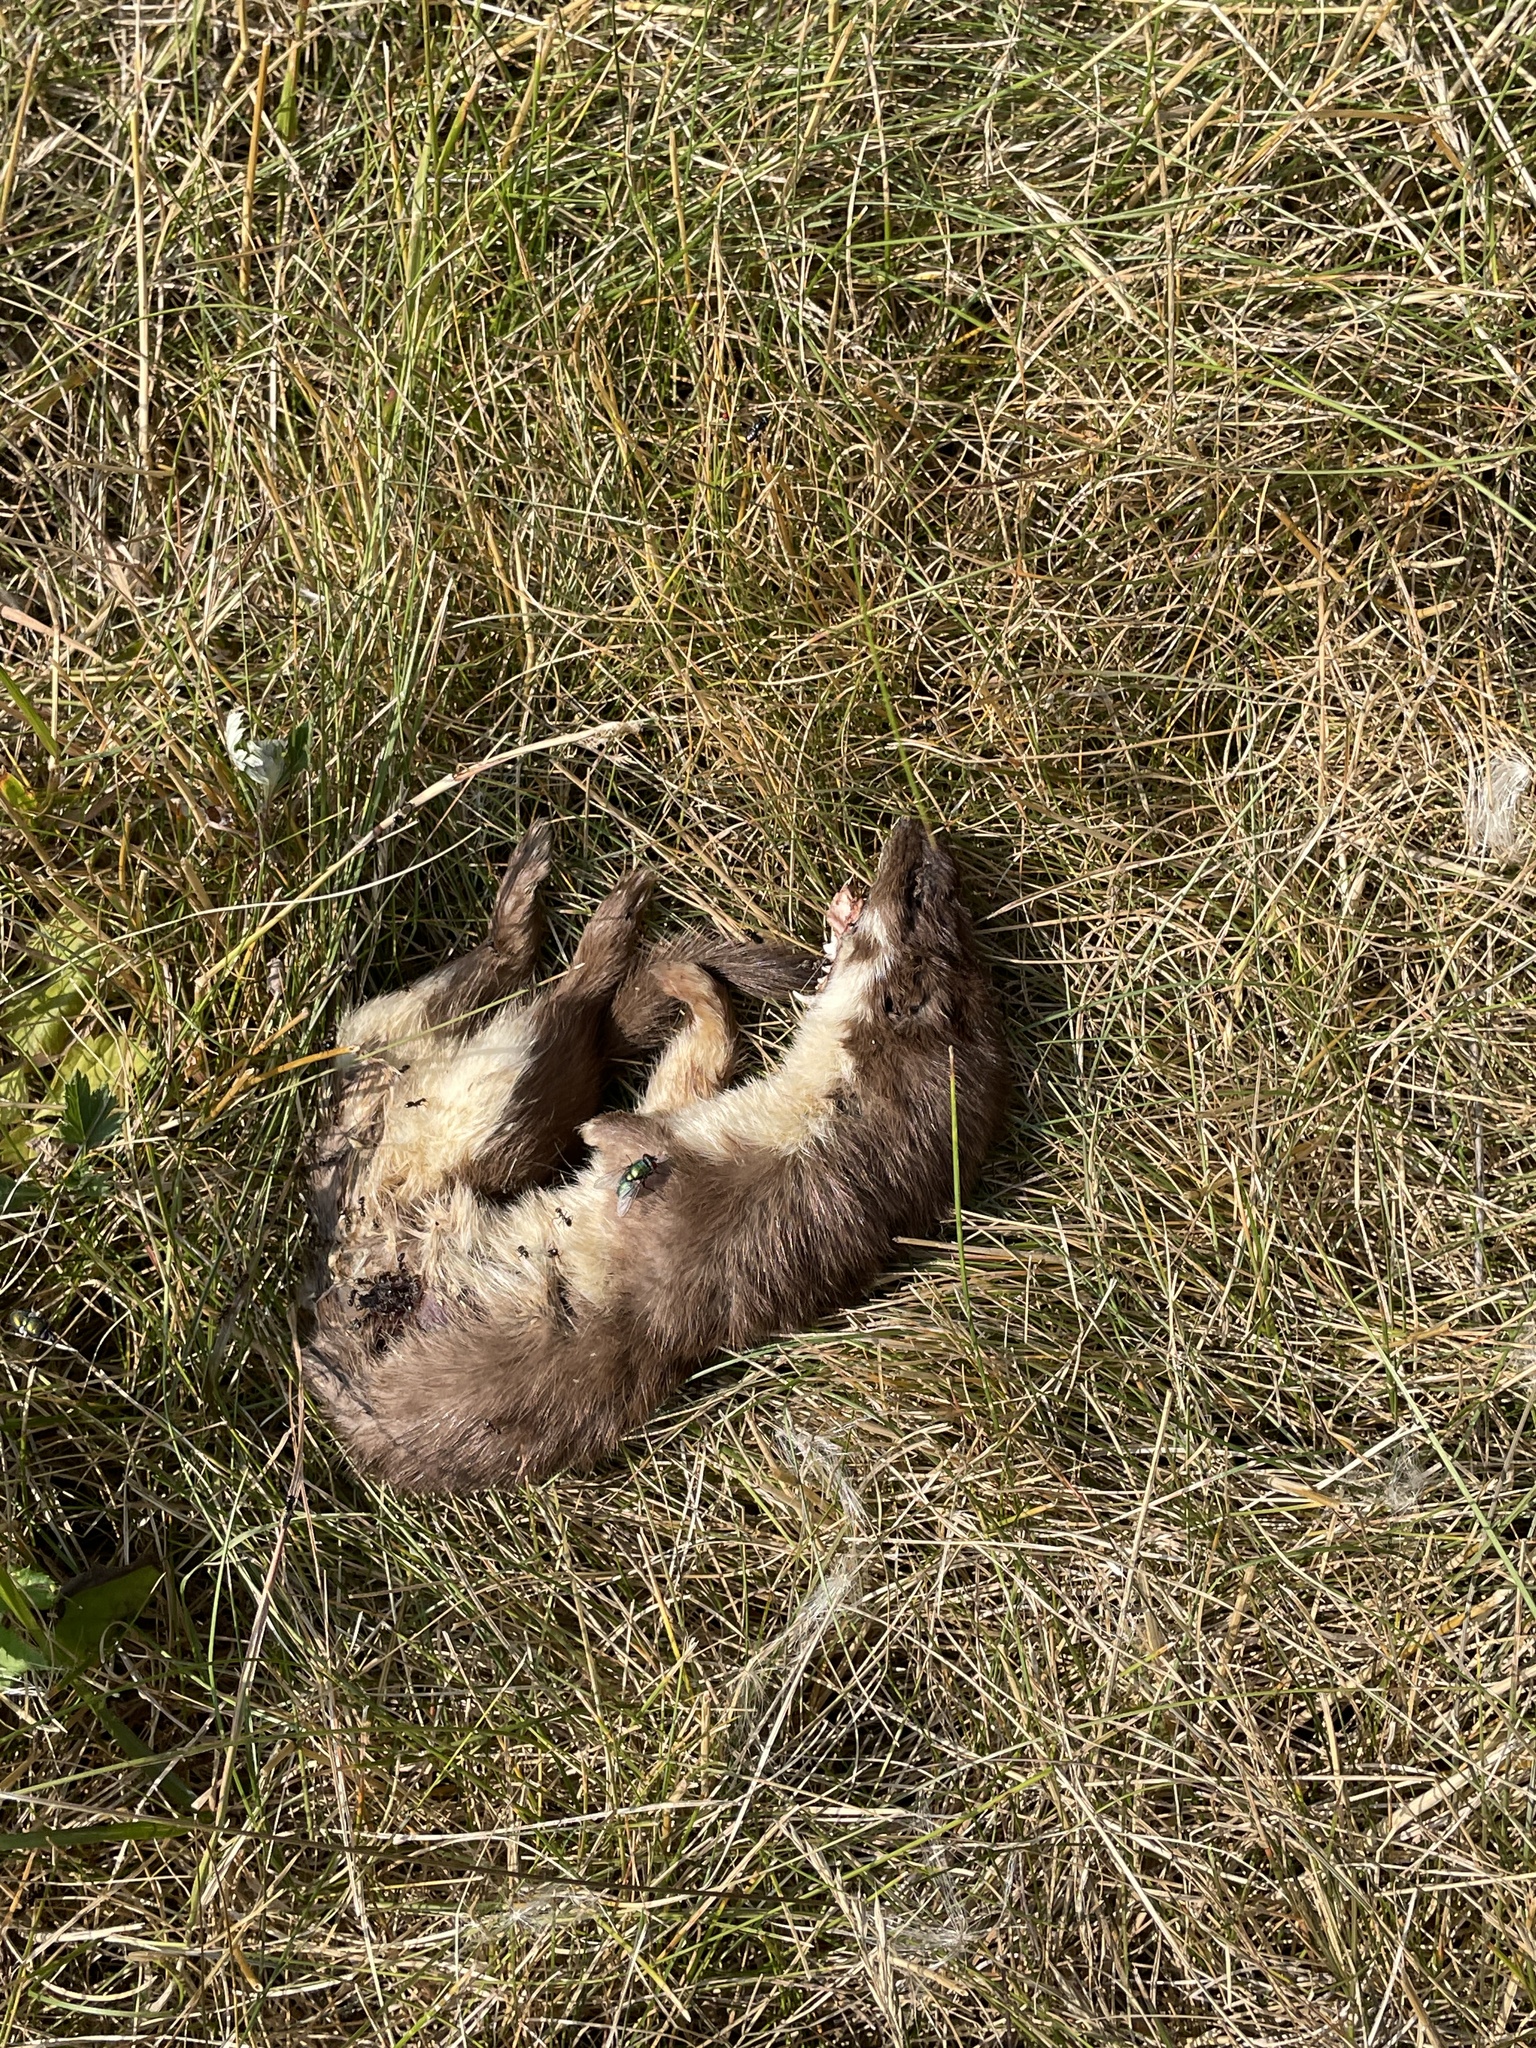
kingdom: Animalia
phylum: Chordata
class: Mammalia
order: Carnivora
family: Mustelidae
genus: Mustela
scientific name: Mustela nivalis
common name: Least weasel
